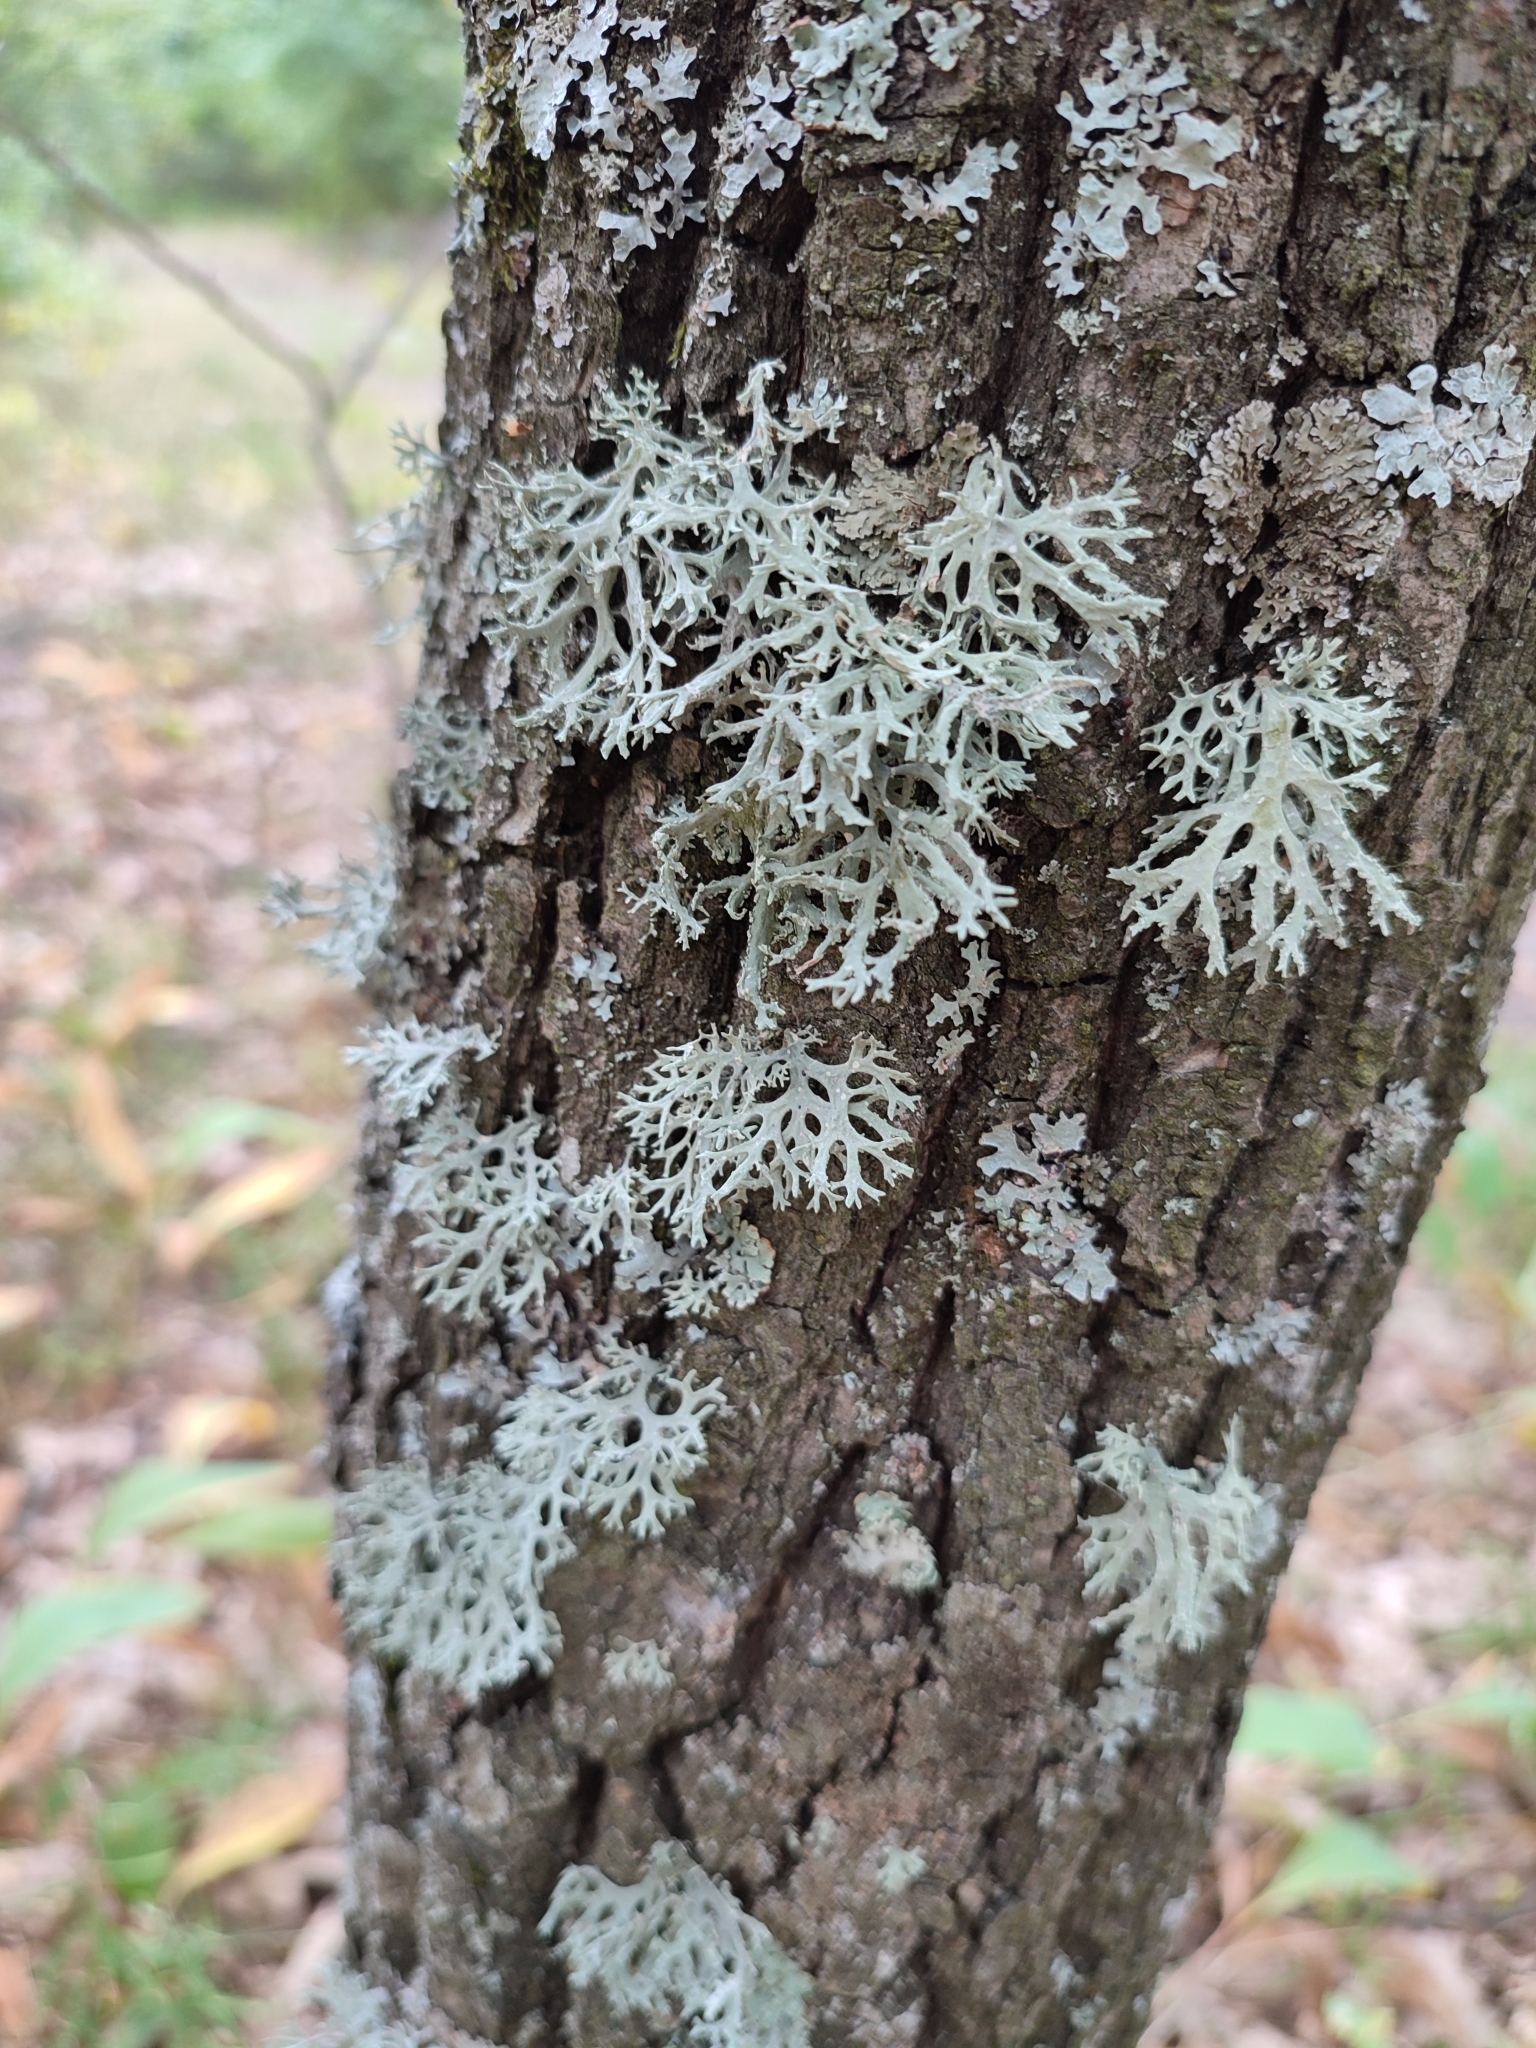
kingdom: Fungi
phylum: Ascomycota
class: Lecanoromycetes
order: Lecanorales
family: Parmeliaceae
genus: Evernia
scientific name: Evernia prunastri
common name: Oak moss
